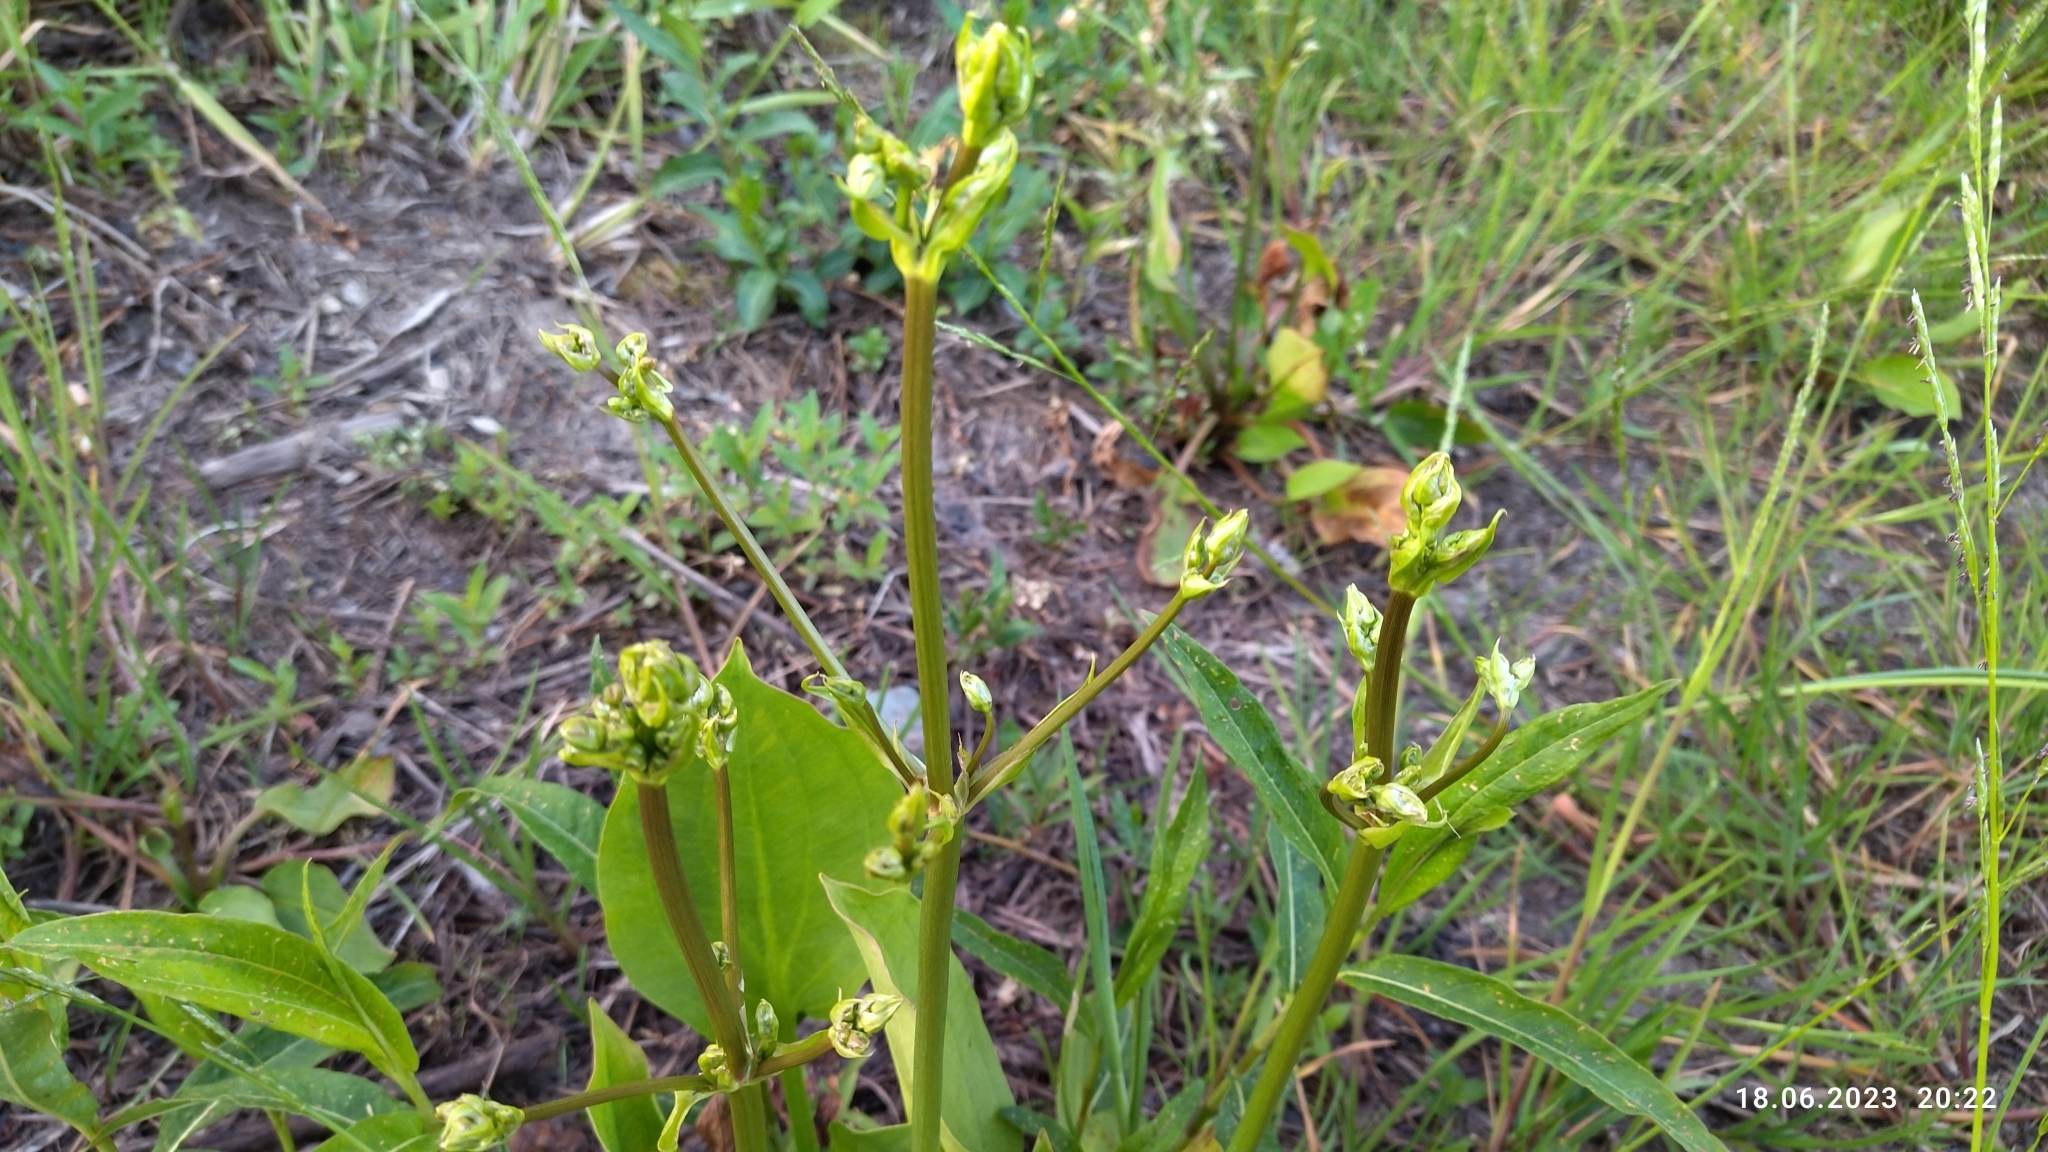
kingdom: Plantae
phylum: Tracheophyta
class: Liliopsida
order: Alismatales
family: Alismataceae
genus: Alisma
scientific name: Alisma plantago-aquatica
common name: Water-plantain
